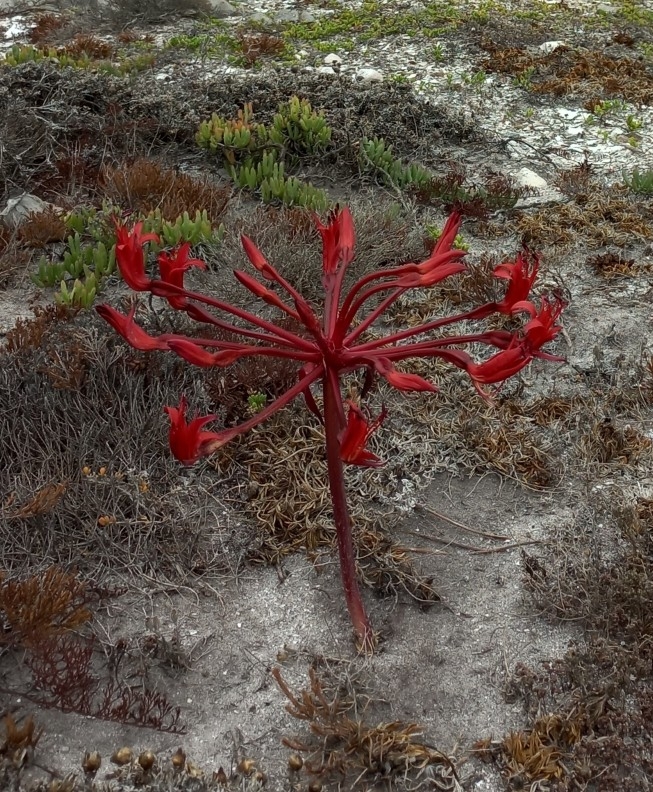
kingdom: Plantae
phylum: Tracheophyta
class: Liliopsida
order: Asparagales
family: Amaryllidaceae
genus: Brunsvigia
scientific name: Brunsvigia orientalis
